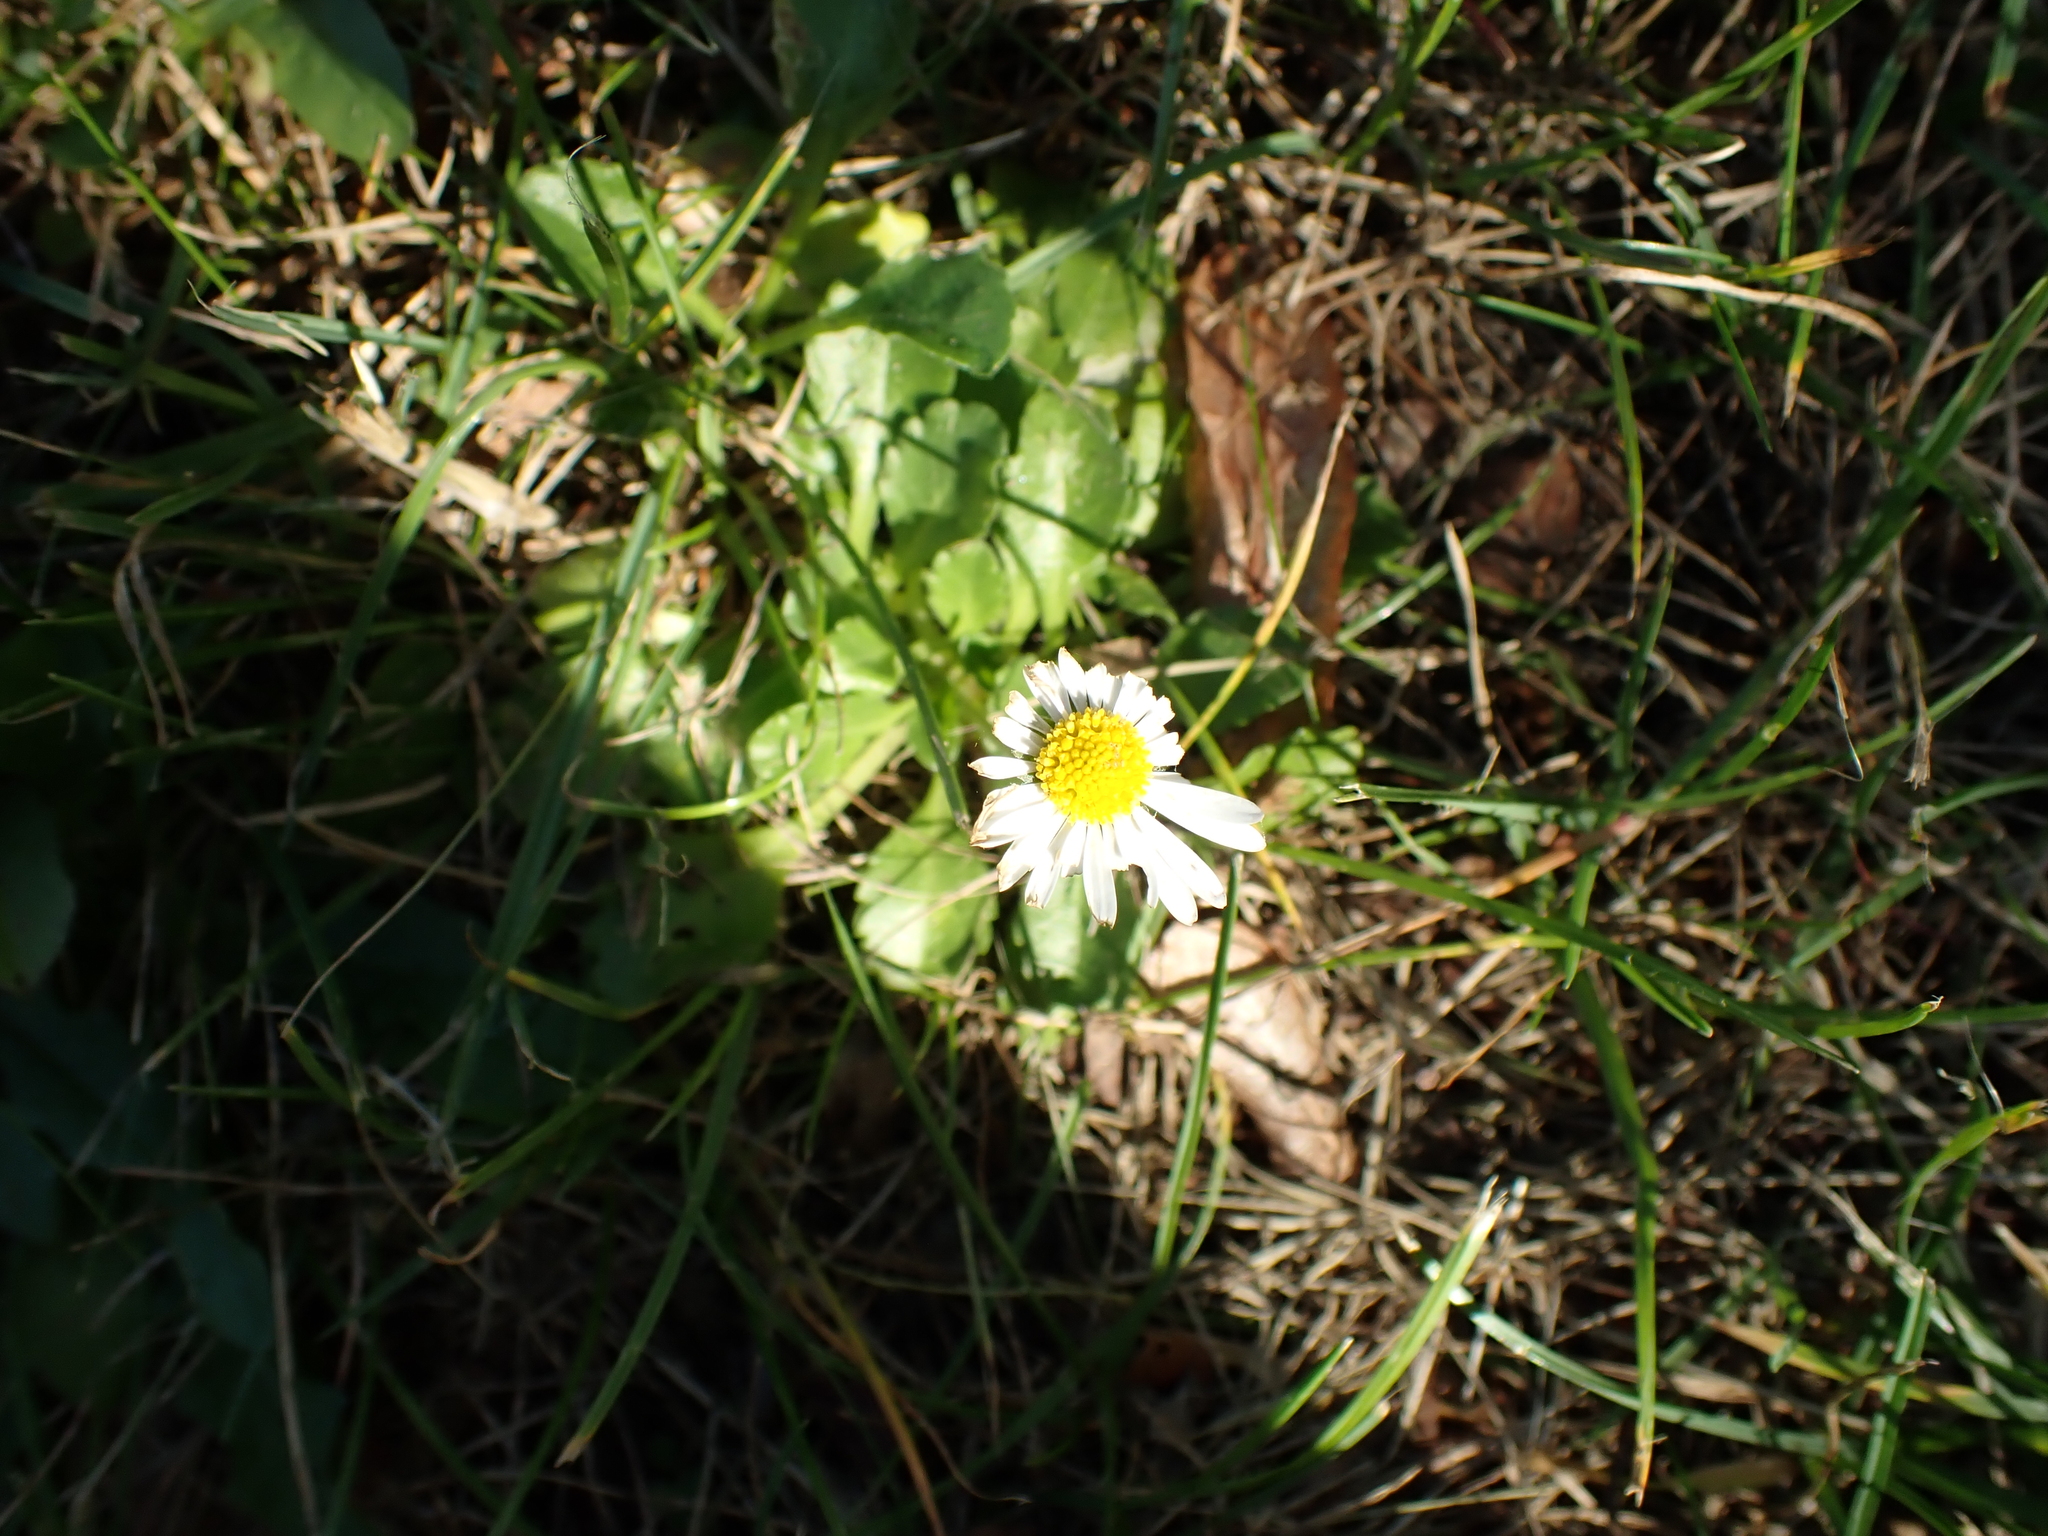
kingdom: Plantae
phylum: Tracheophyta
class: Magnoliopsida
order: Asterales
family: Asteraceae
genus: Bellis
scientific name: Bellis perennis
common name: Lawndaisy
